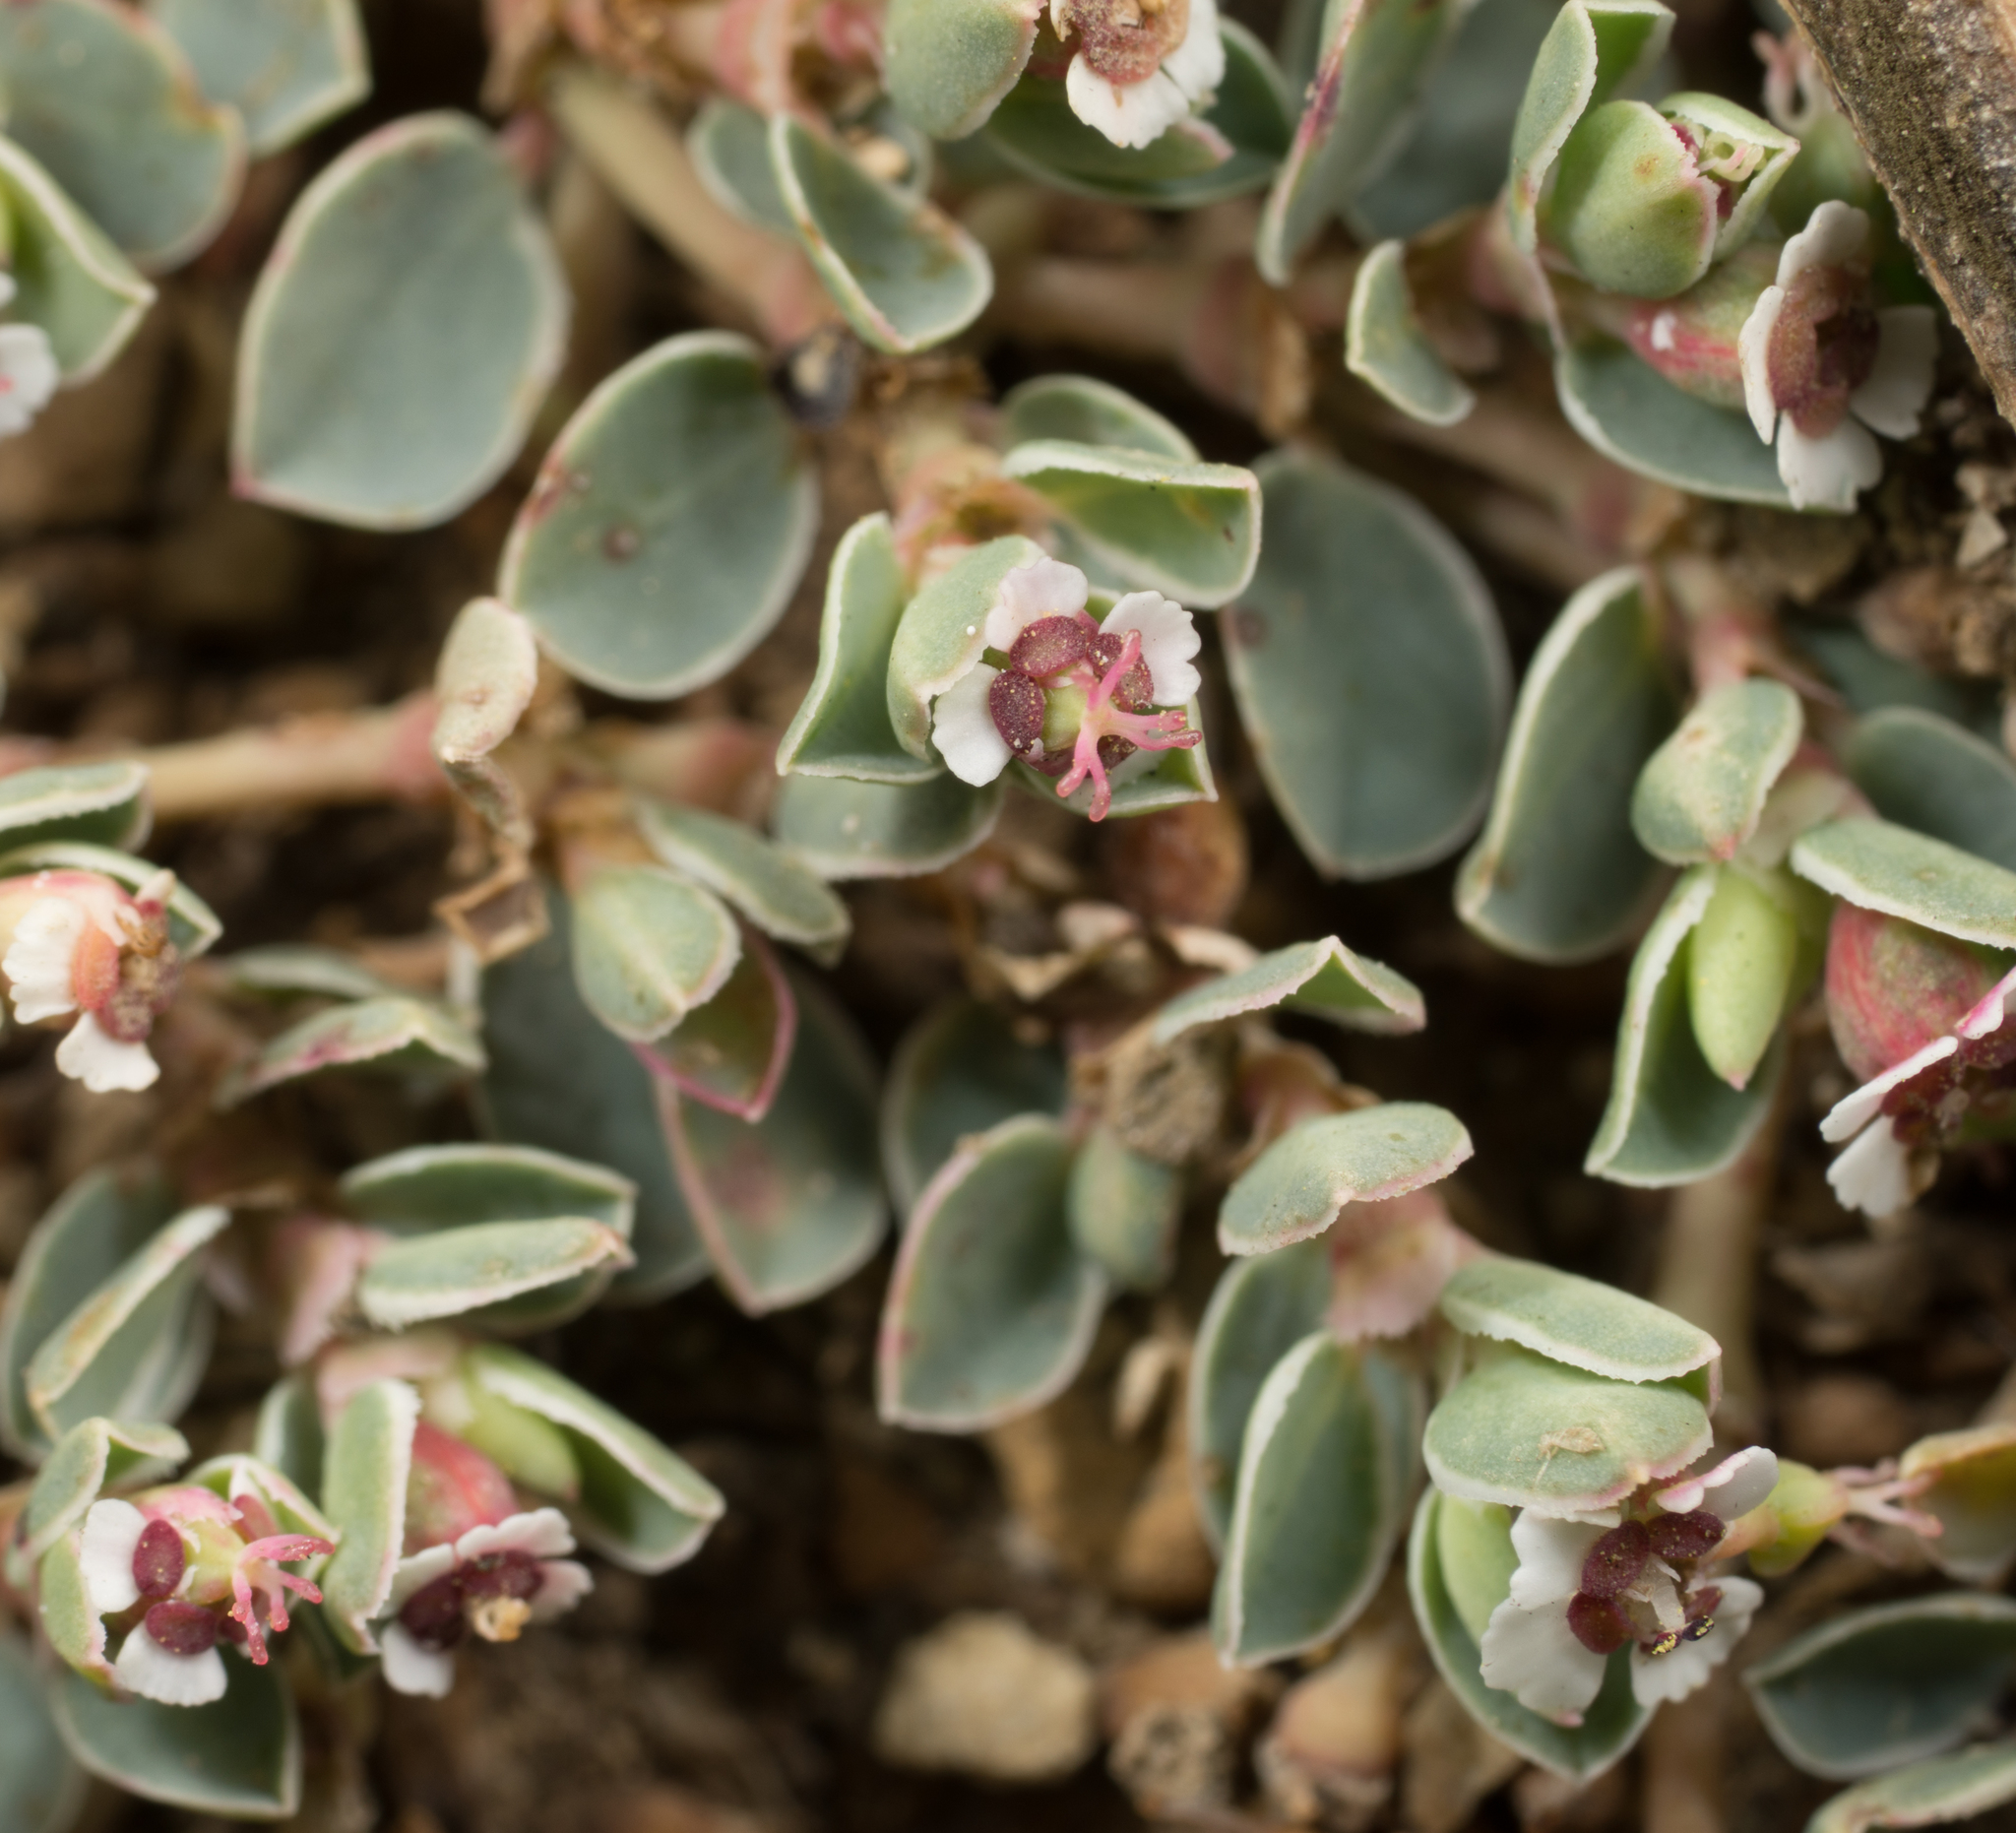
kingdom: Plantae
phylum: Tracheophyta
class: Magnoliopsida
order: Malpighiales
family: Euphorbiaceae
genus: Euphorbia
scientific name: Euphorbia albomarginata
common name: Whitemargin sandmat
